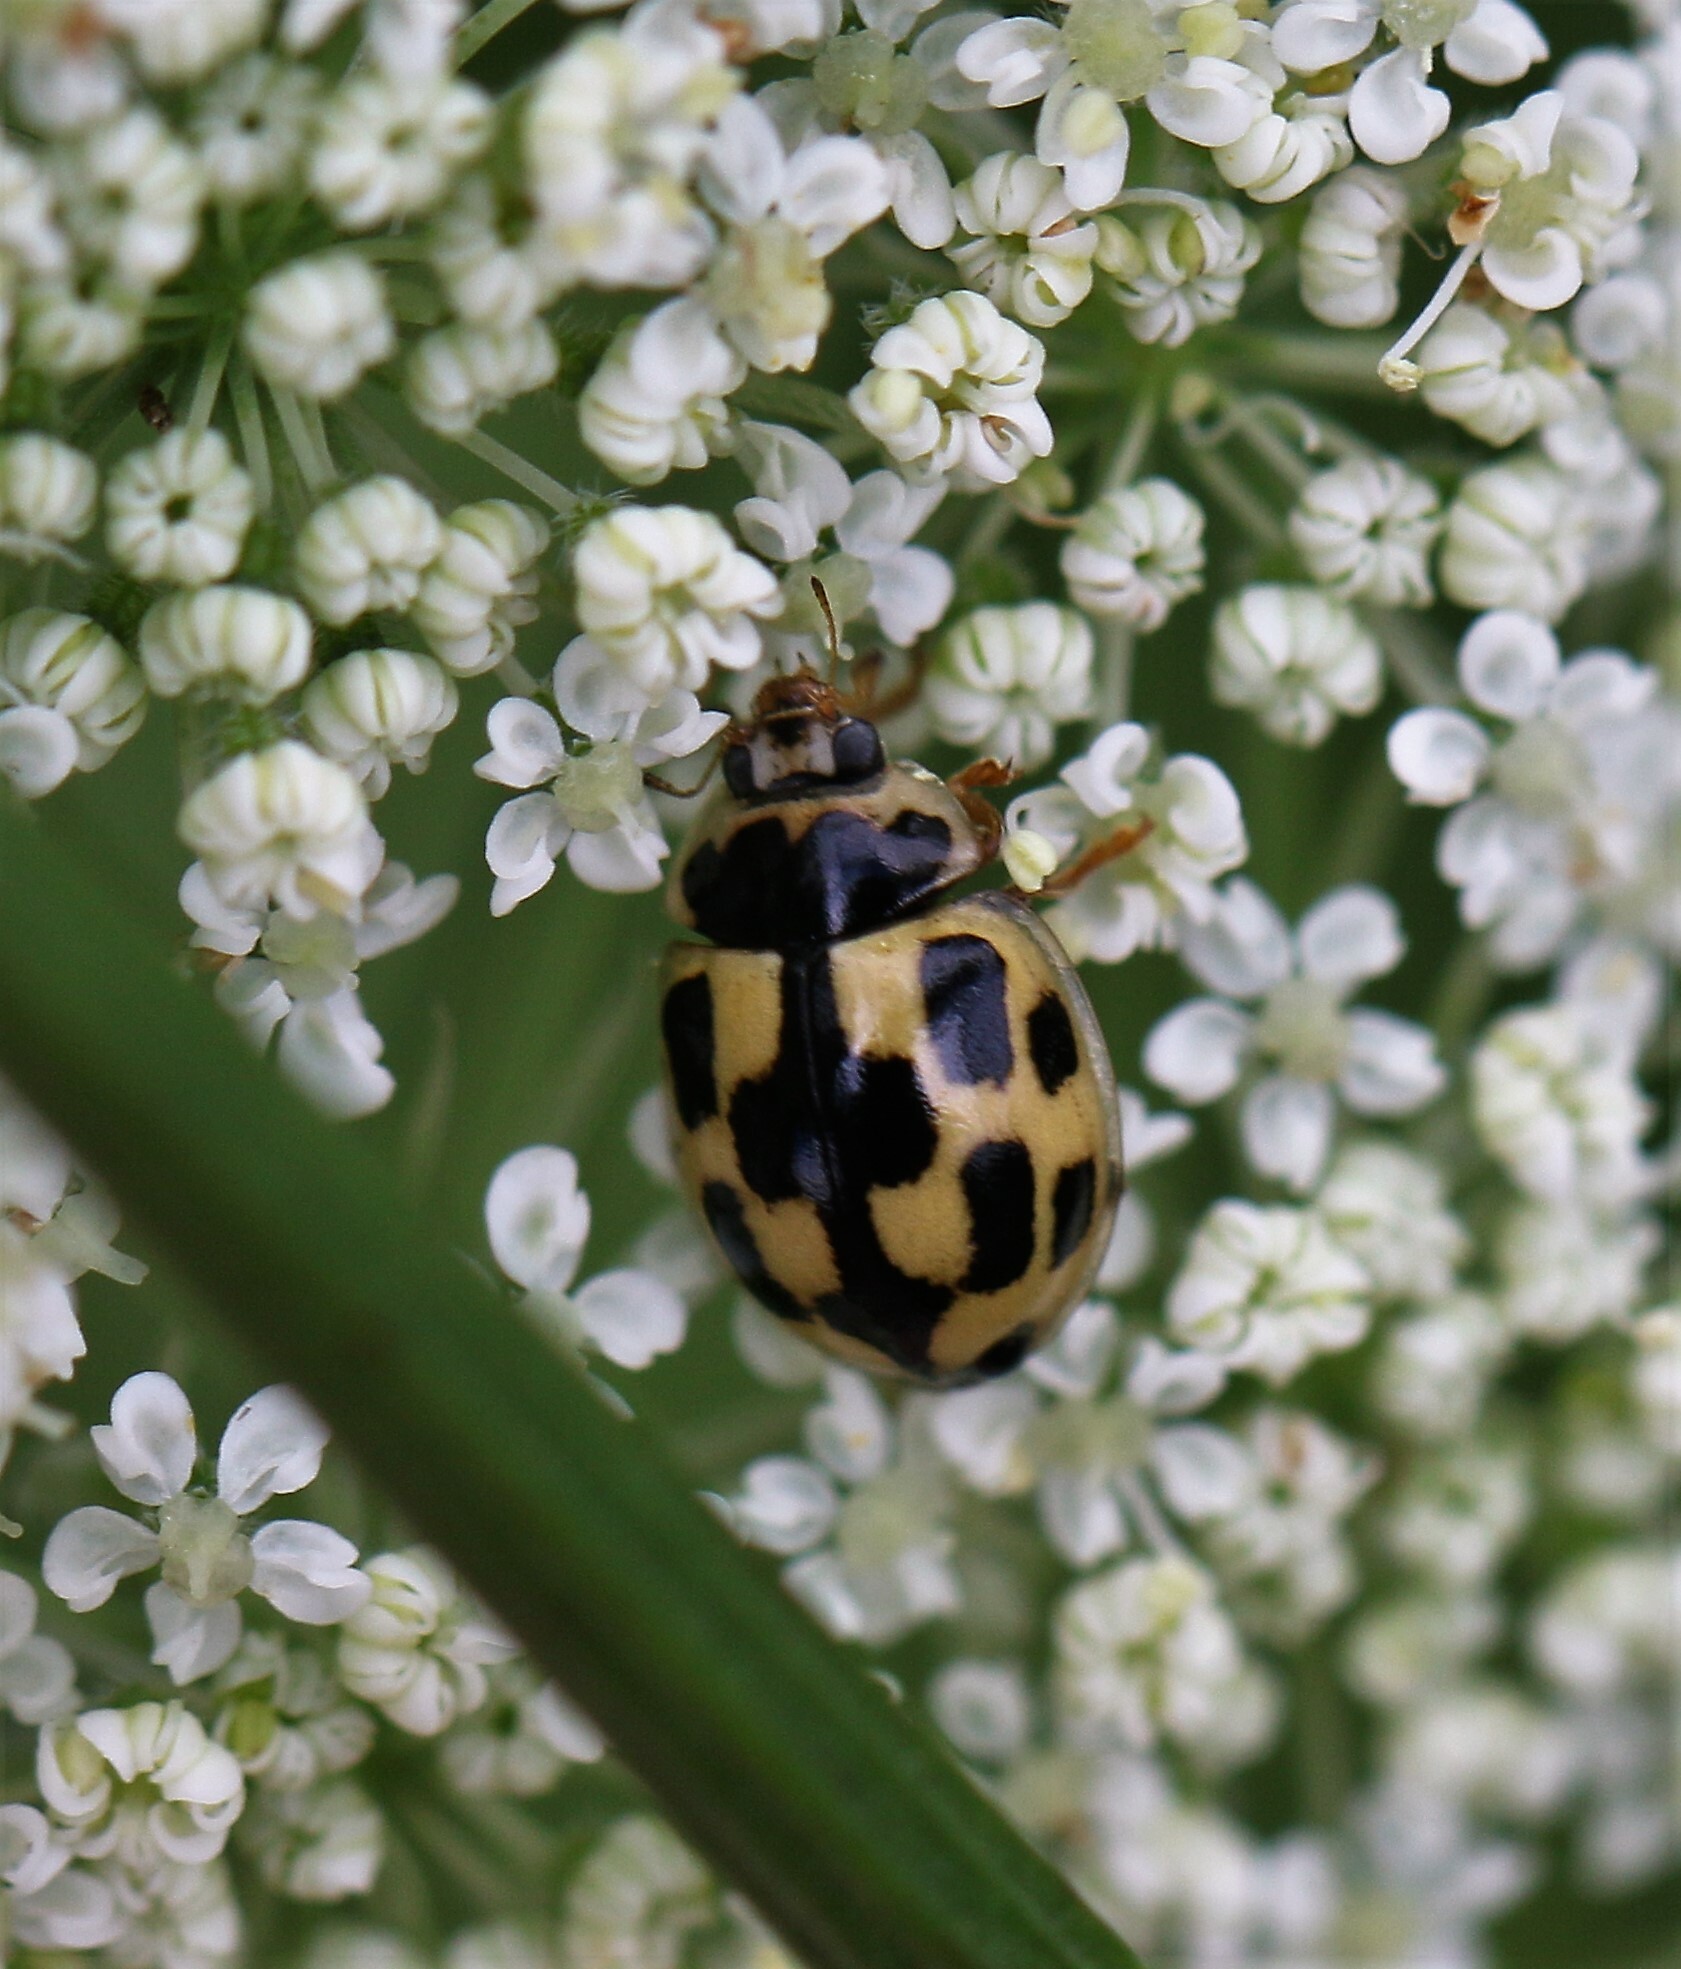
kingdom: Animalia
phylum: Arthropoda
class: Insecta
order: Coleoptera
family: Coccinellidae
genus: Propylaea
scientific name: Propylaea quatuordecimpunctata
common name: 14-spotted ladybird beetle
